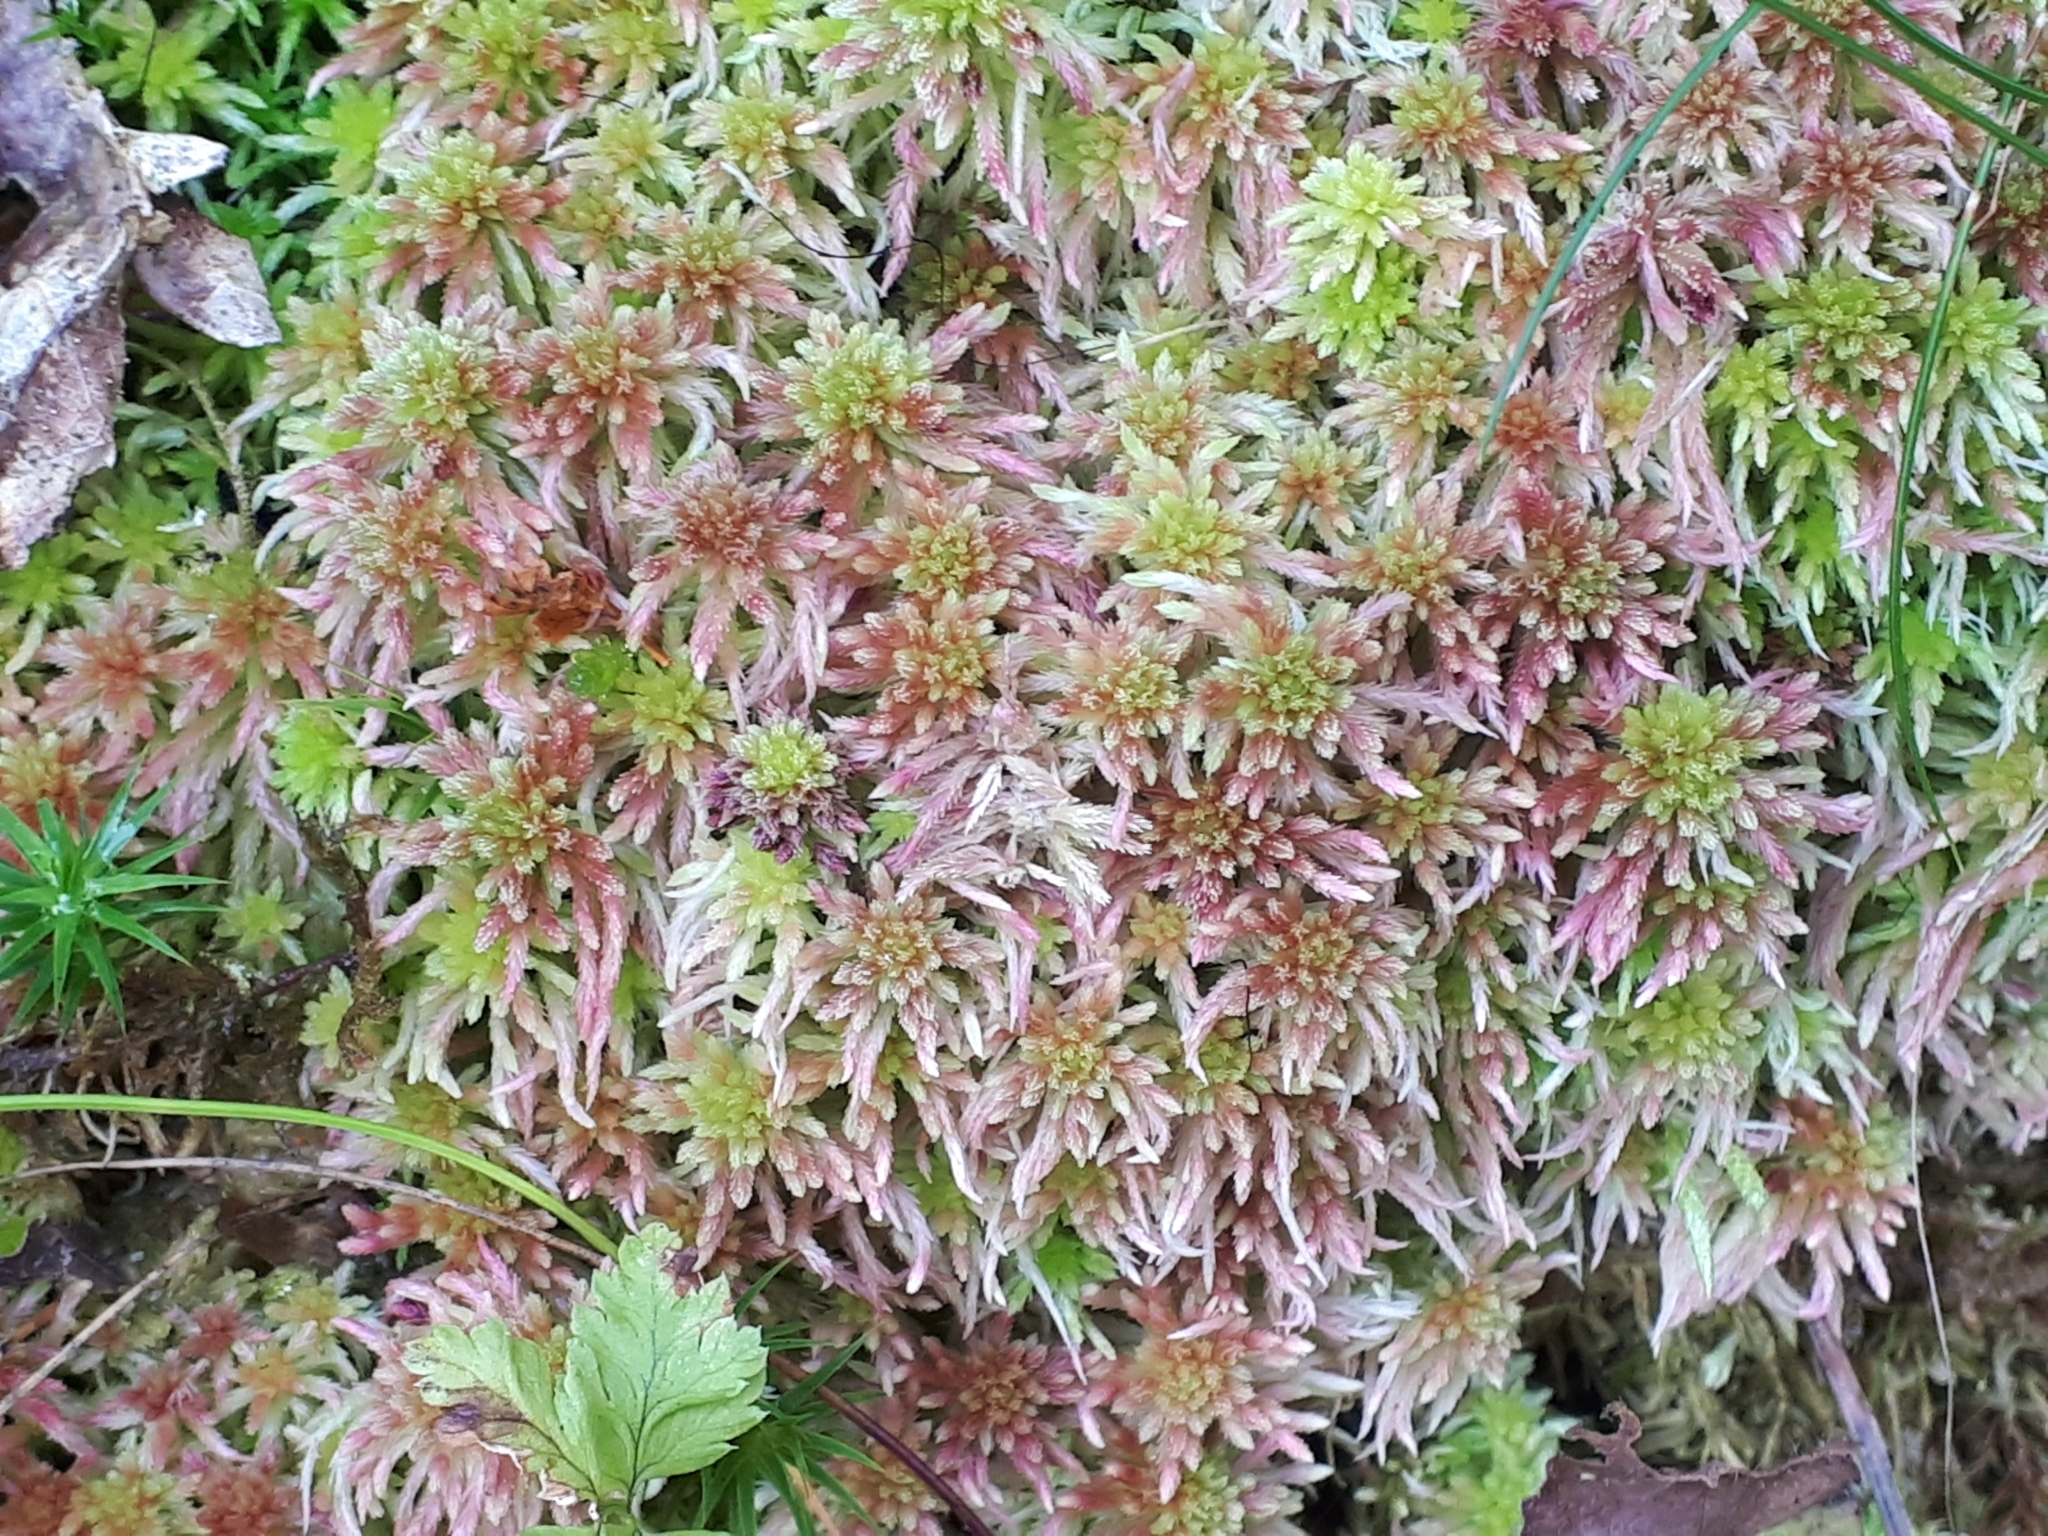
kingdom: Plantae
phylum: Bryophyta
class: Sphagnopsida
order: Sphagnales
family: Sphagnaceae
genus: Sphagnum
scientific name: Sphagnum quinquefarium
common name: Five-ranked peat moss
